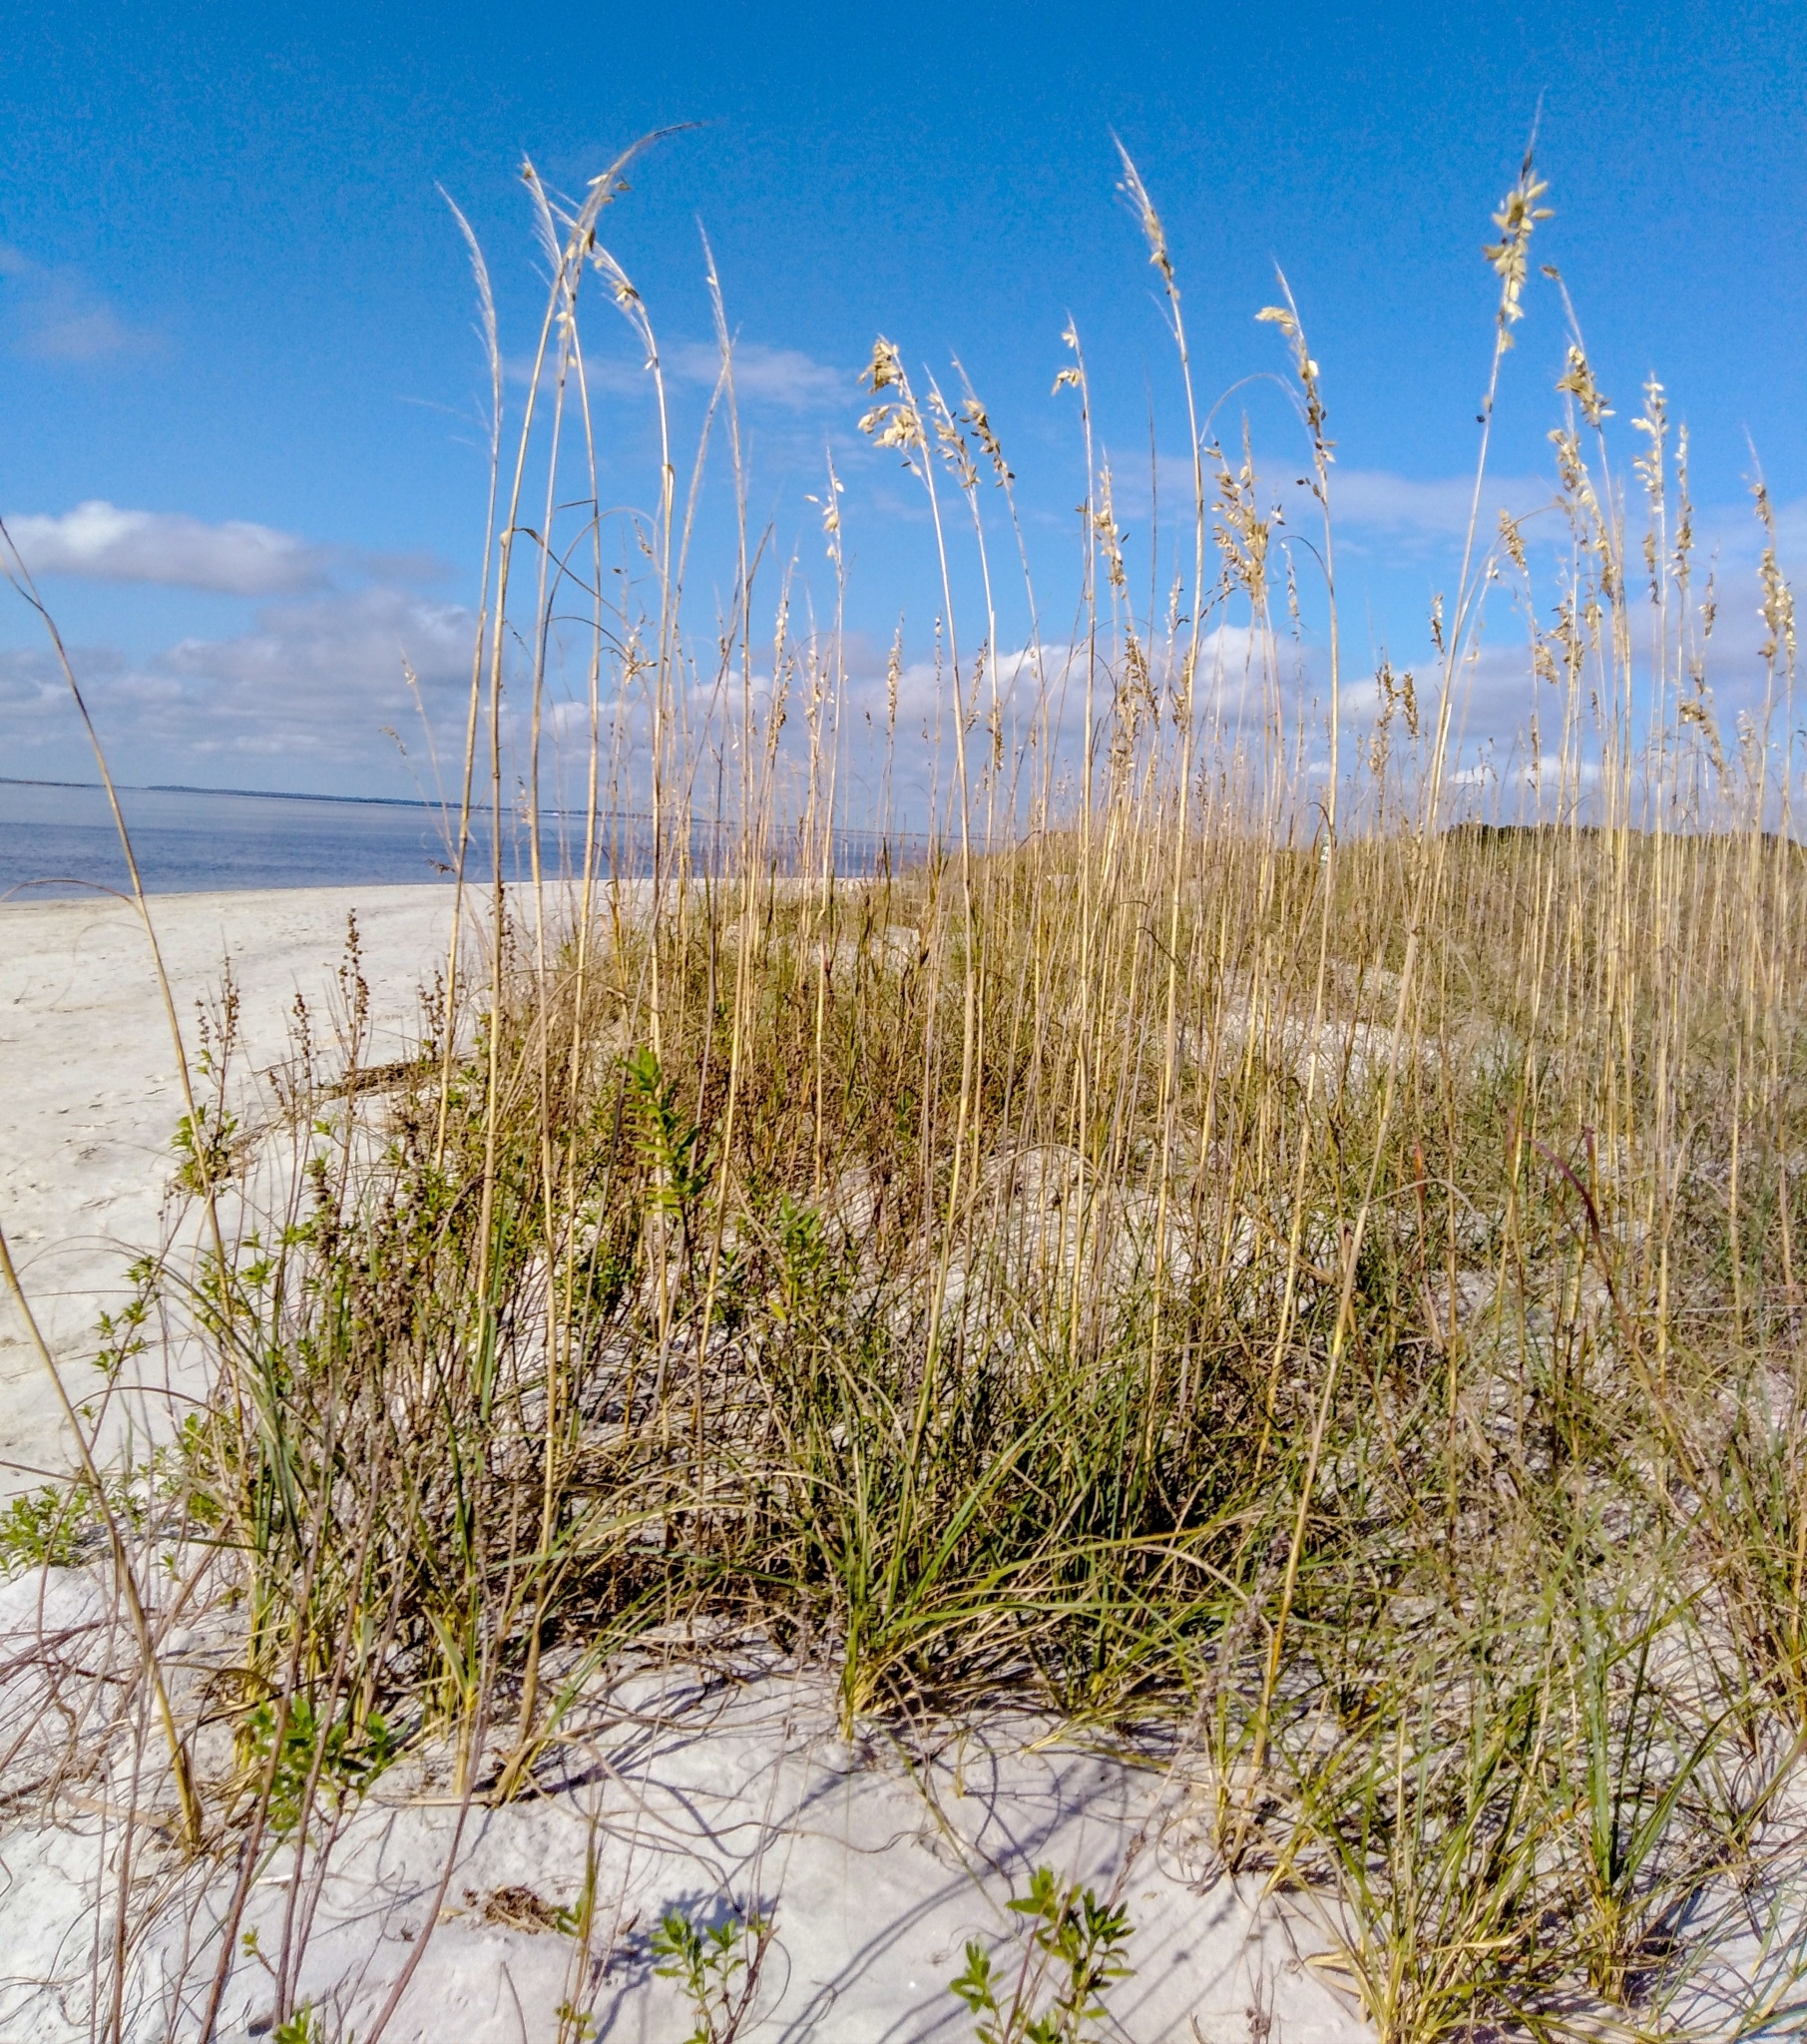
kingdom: Plantae
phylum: Tracheophyta
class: Liliopsida
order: Poales
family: Poaceae
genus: Uniola
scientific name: Uniola paniculata
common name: Seaside-oats
